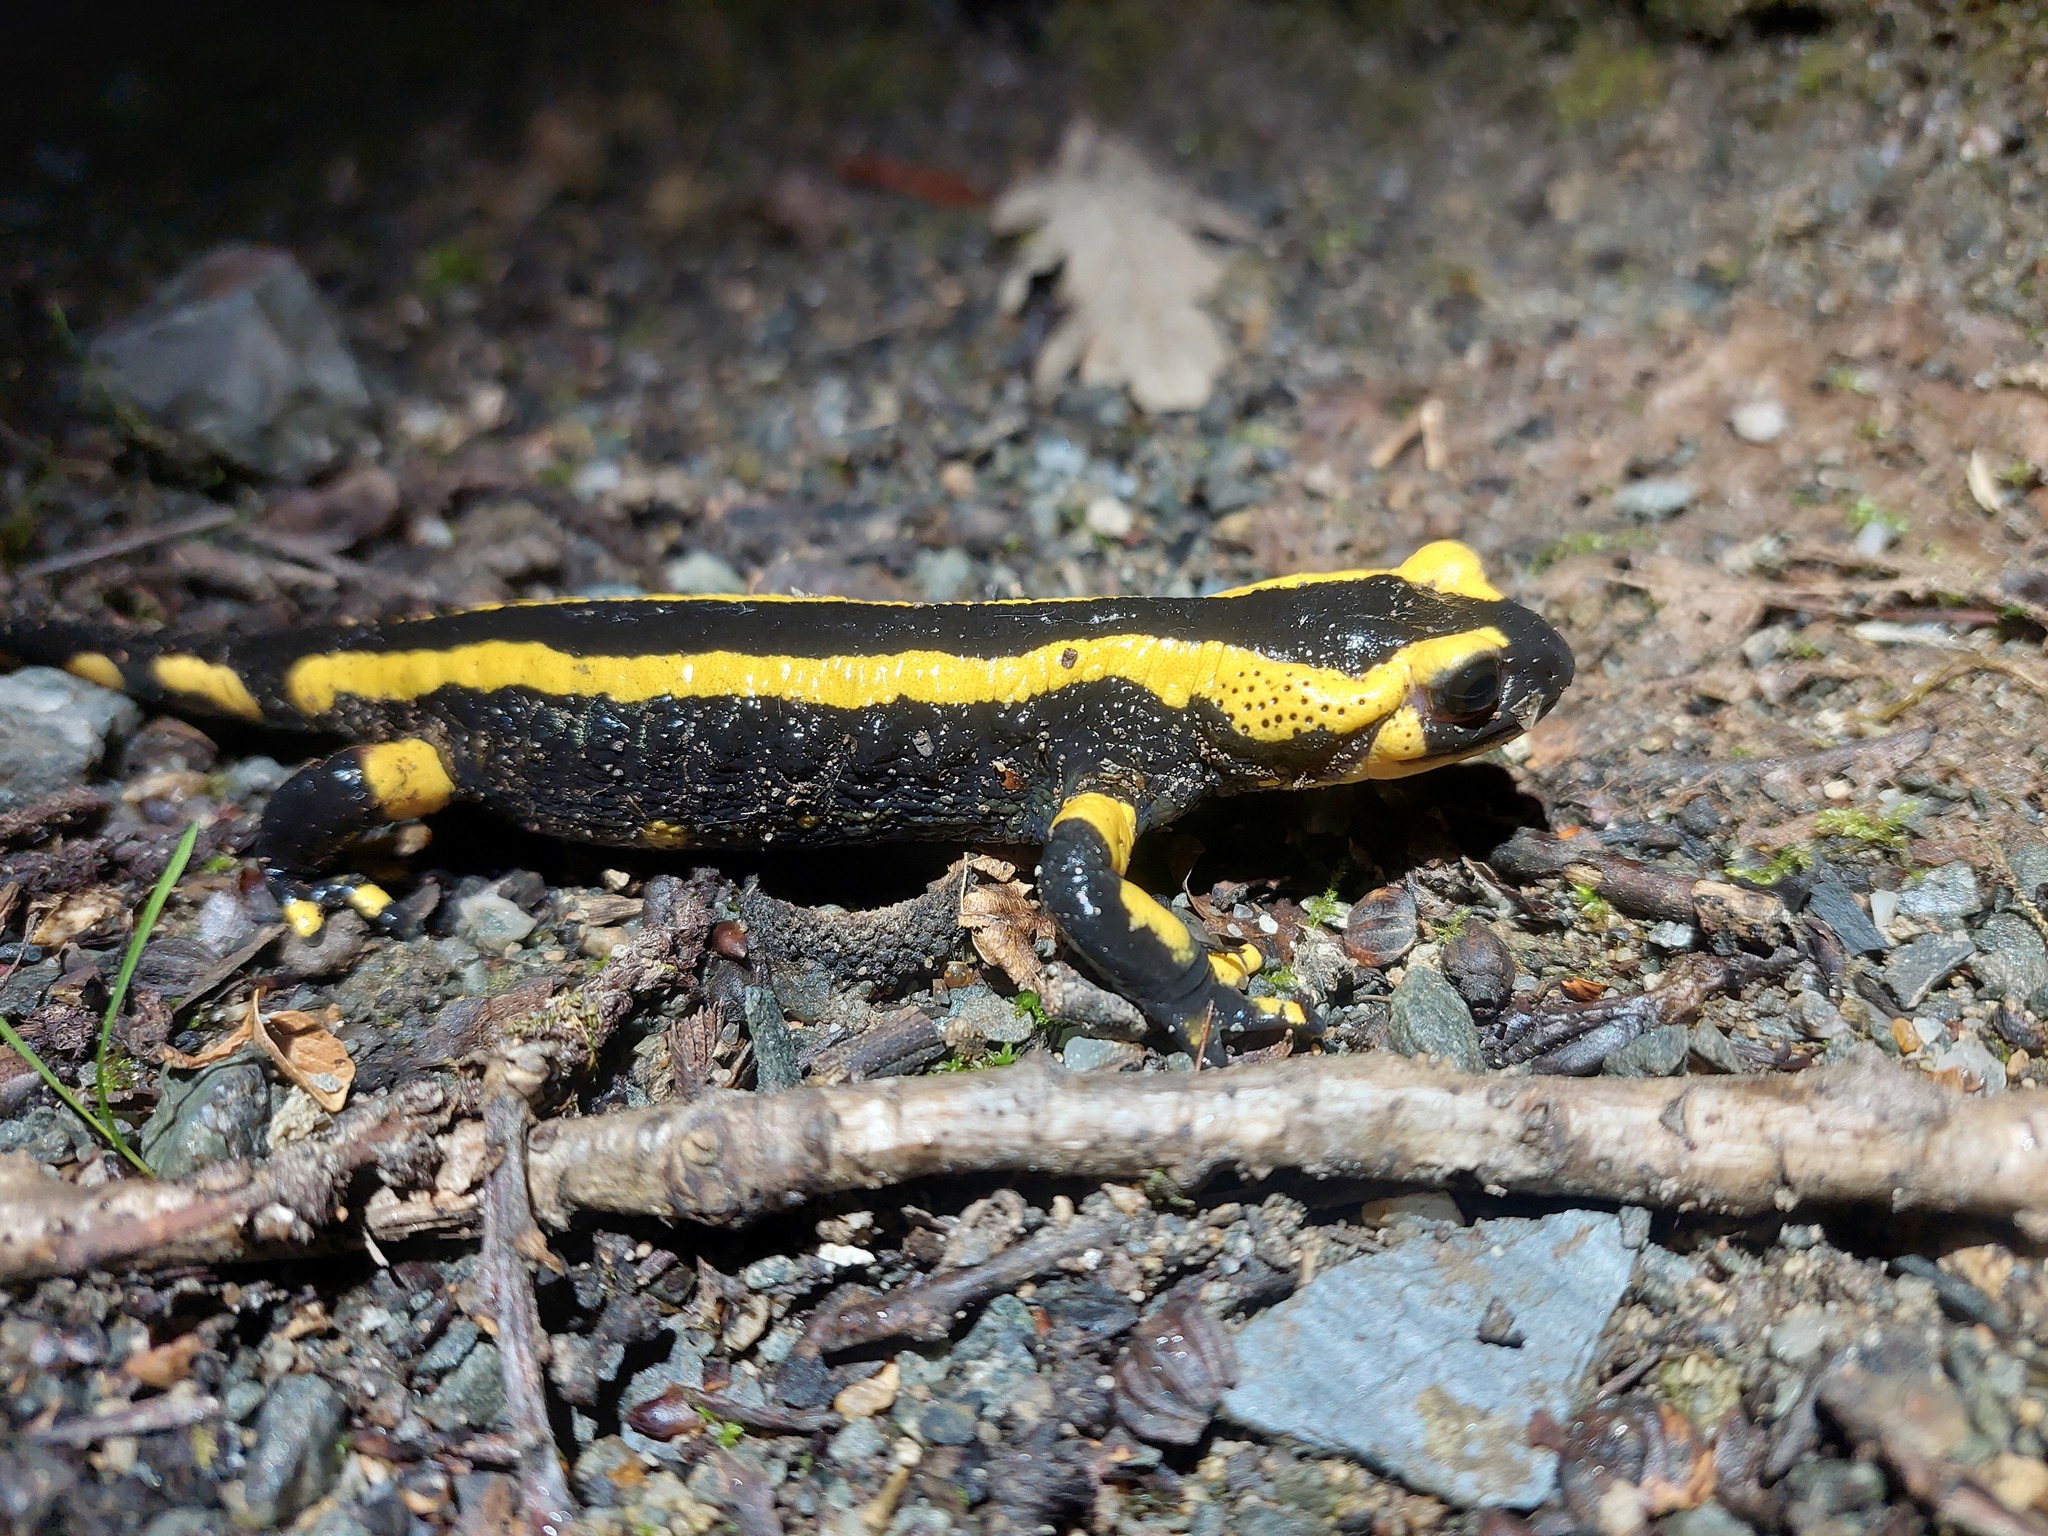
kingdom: Animalia
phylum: Chordata
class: Amphibia
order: Caudata
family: Salamandridae
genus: Salamandra
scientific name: Salamandra salamandra
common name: Fire salamander
